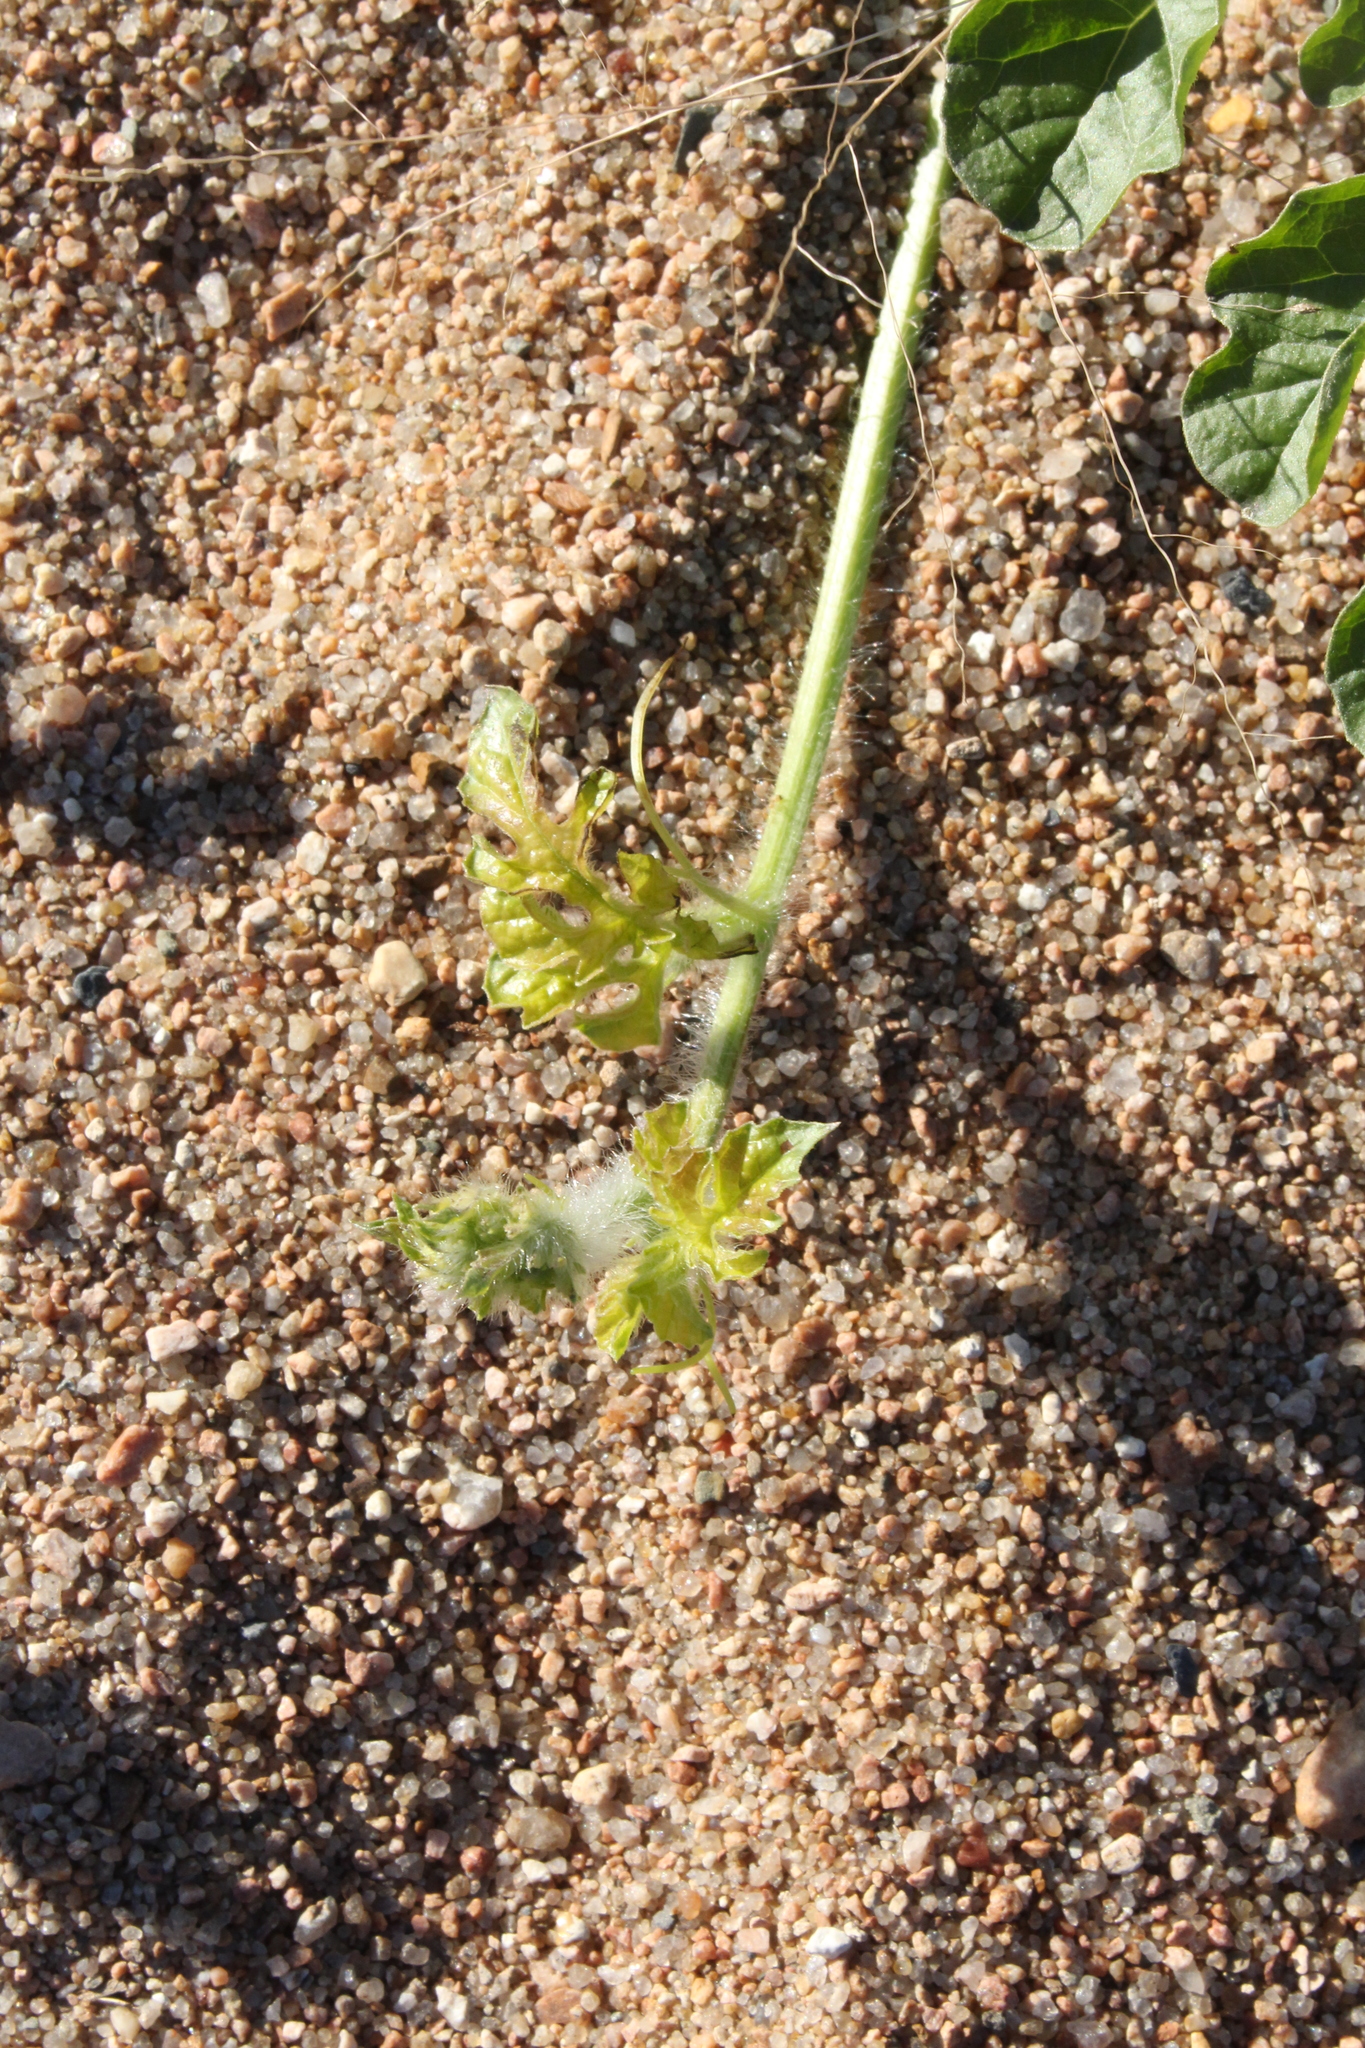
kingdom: Plantae
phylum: Tracheophyta
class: Magnoliopsida
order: Cucurbitales
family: Cucurbitaceae
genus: Citrullus
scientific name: Citrullus lanatus
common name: Watermelon
